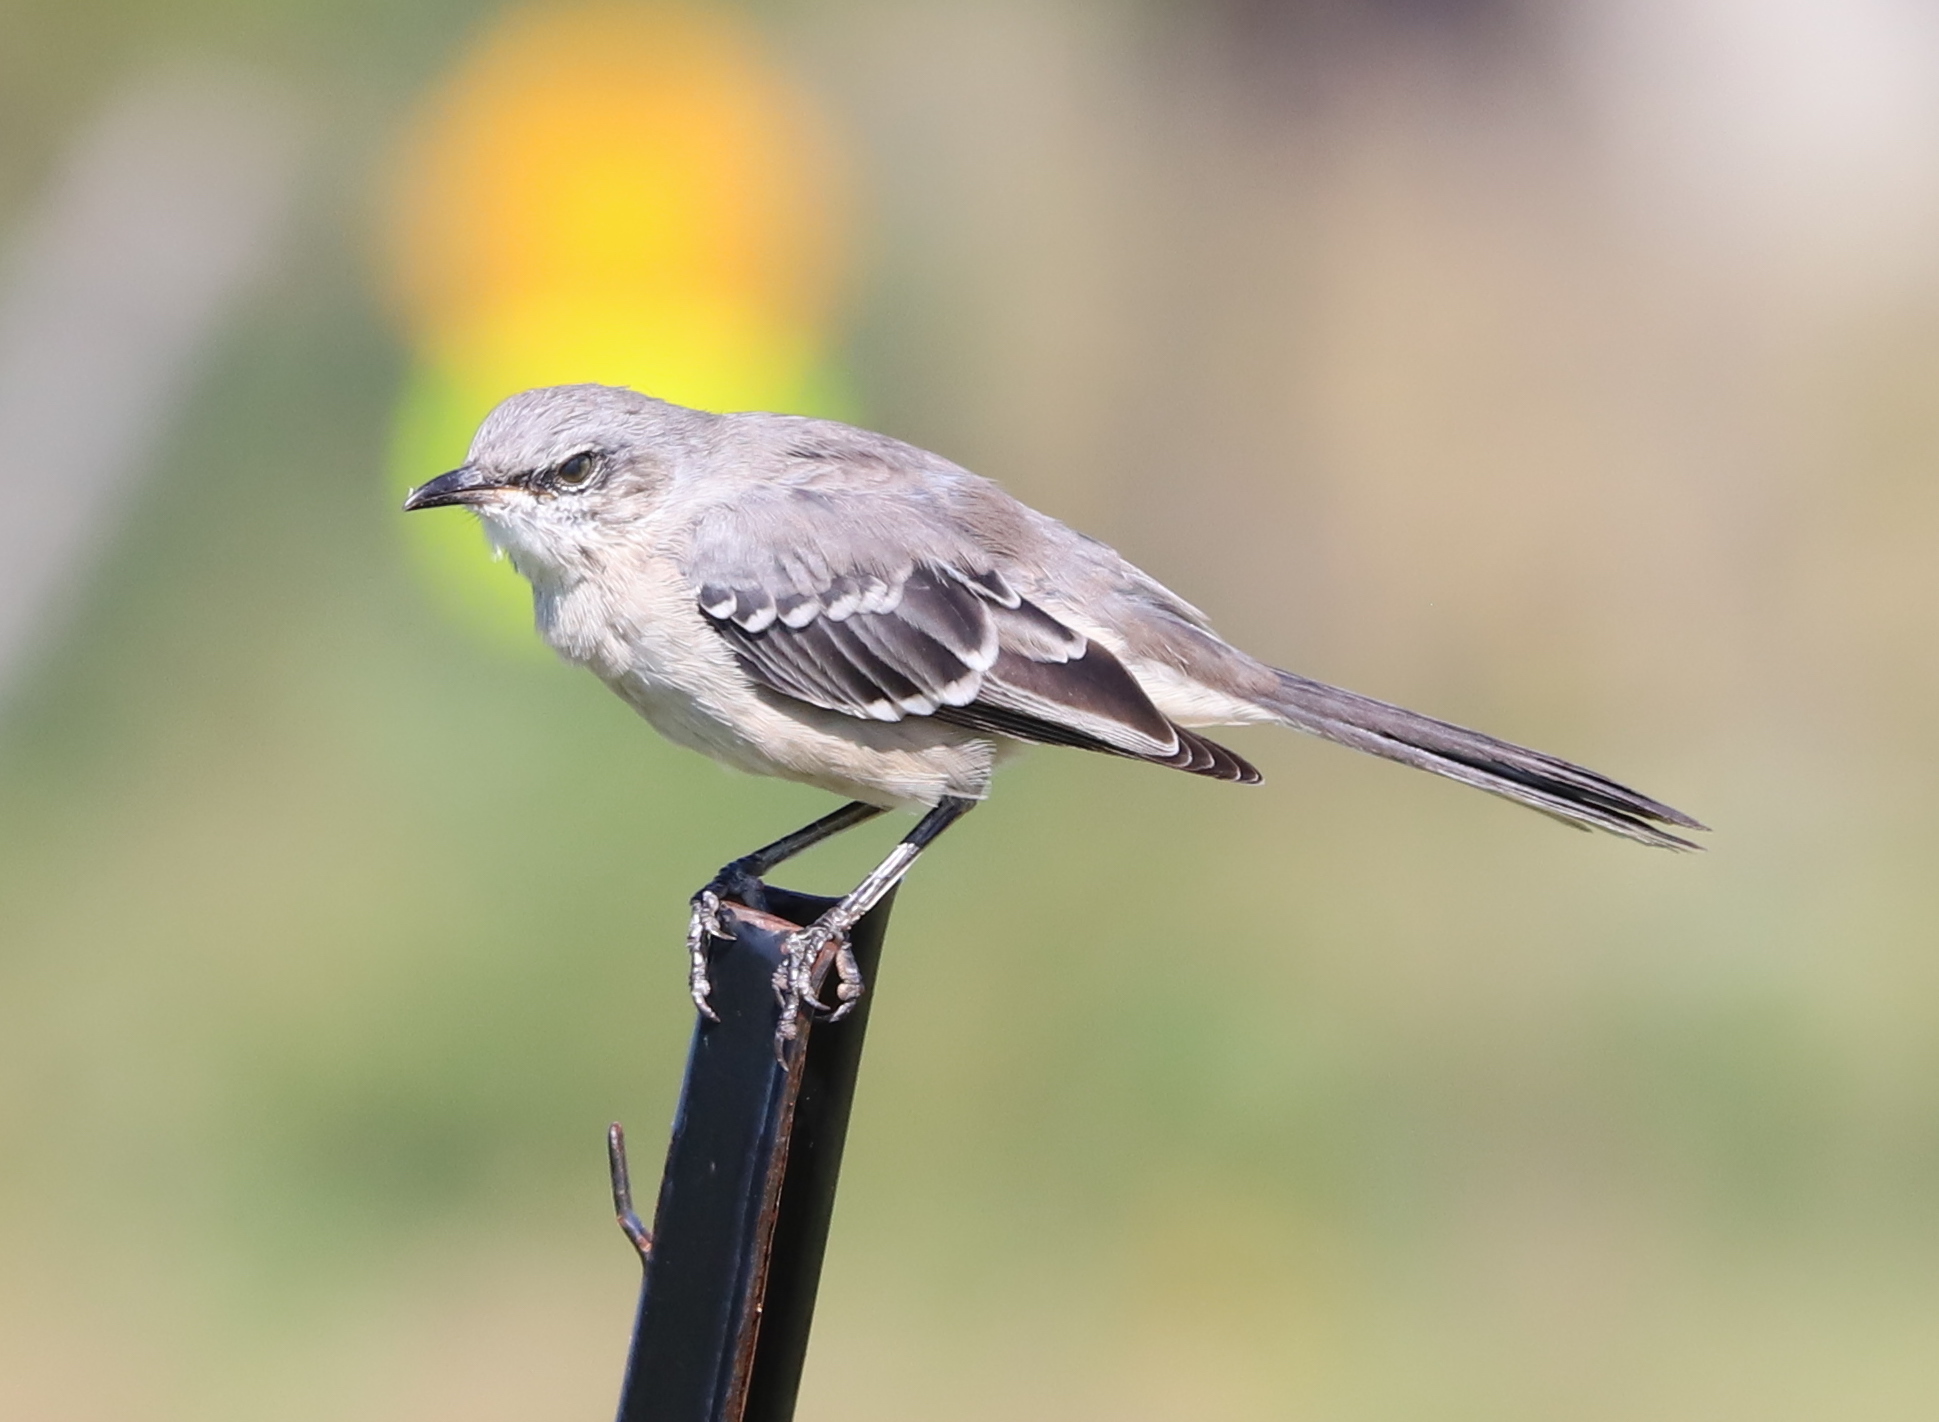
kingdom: Animalia
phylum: Chordata
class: Aves
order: Passeriformes
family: Mimidae
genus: Mimus
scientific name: Mimus polyglottos
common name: Northern mockingbird
